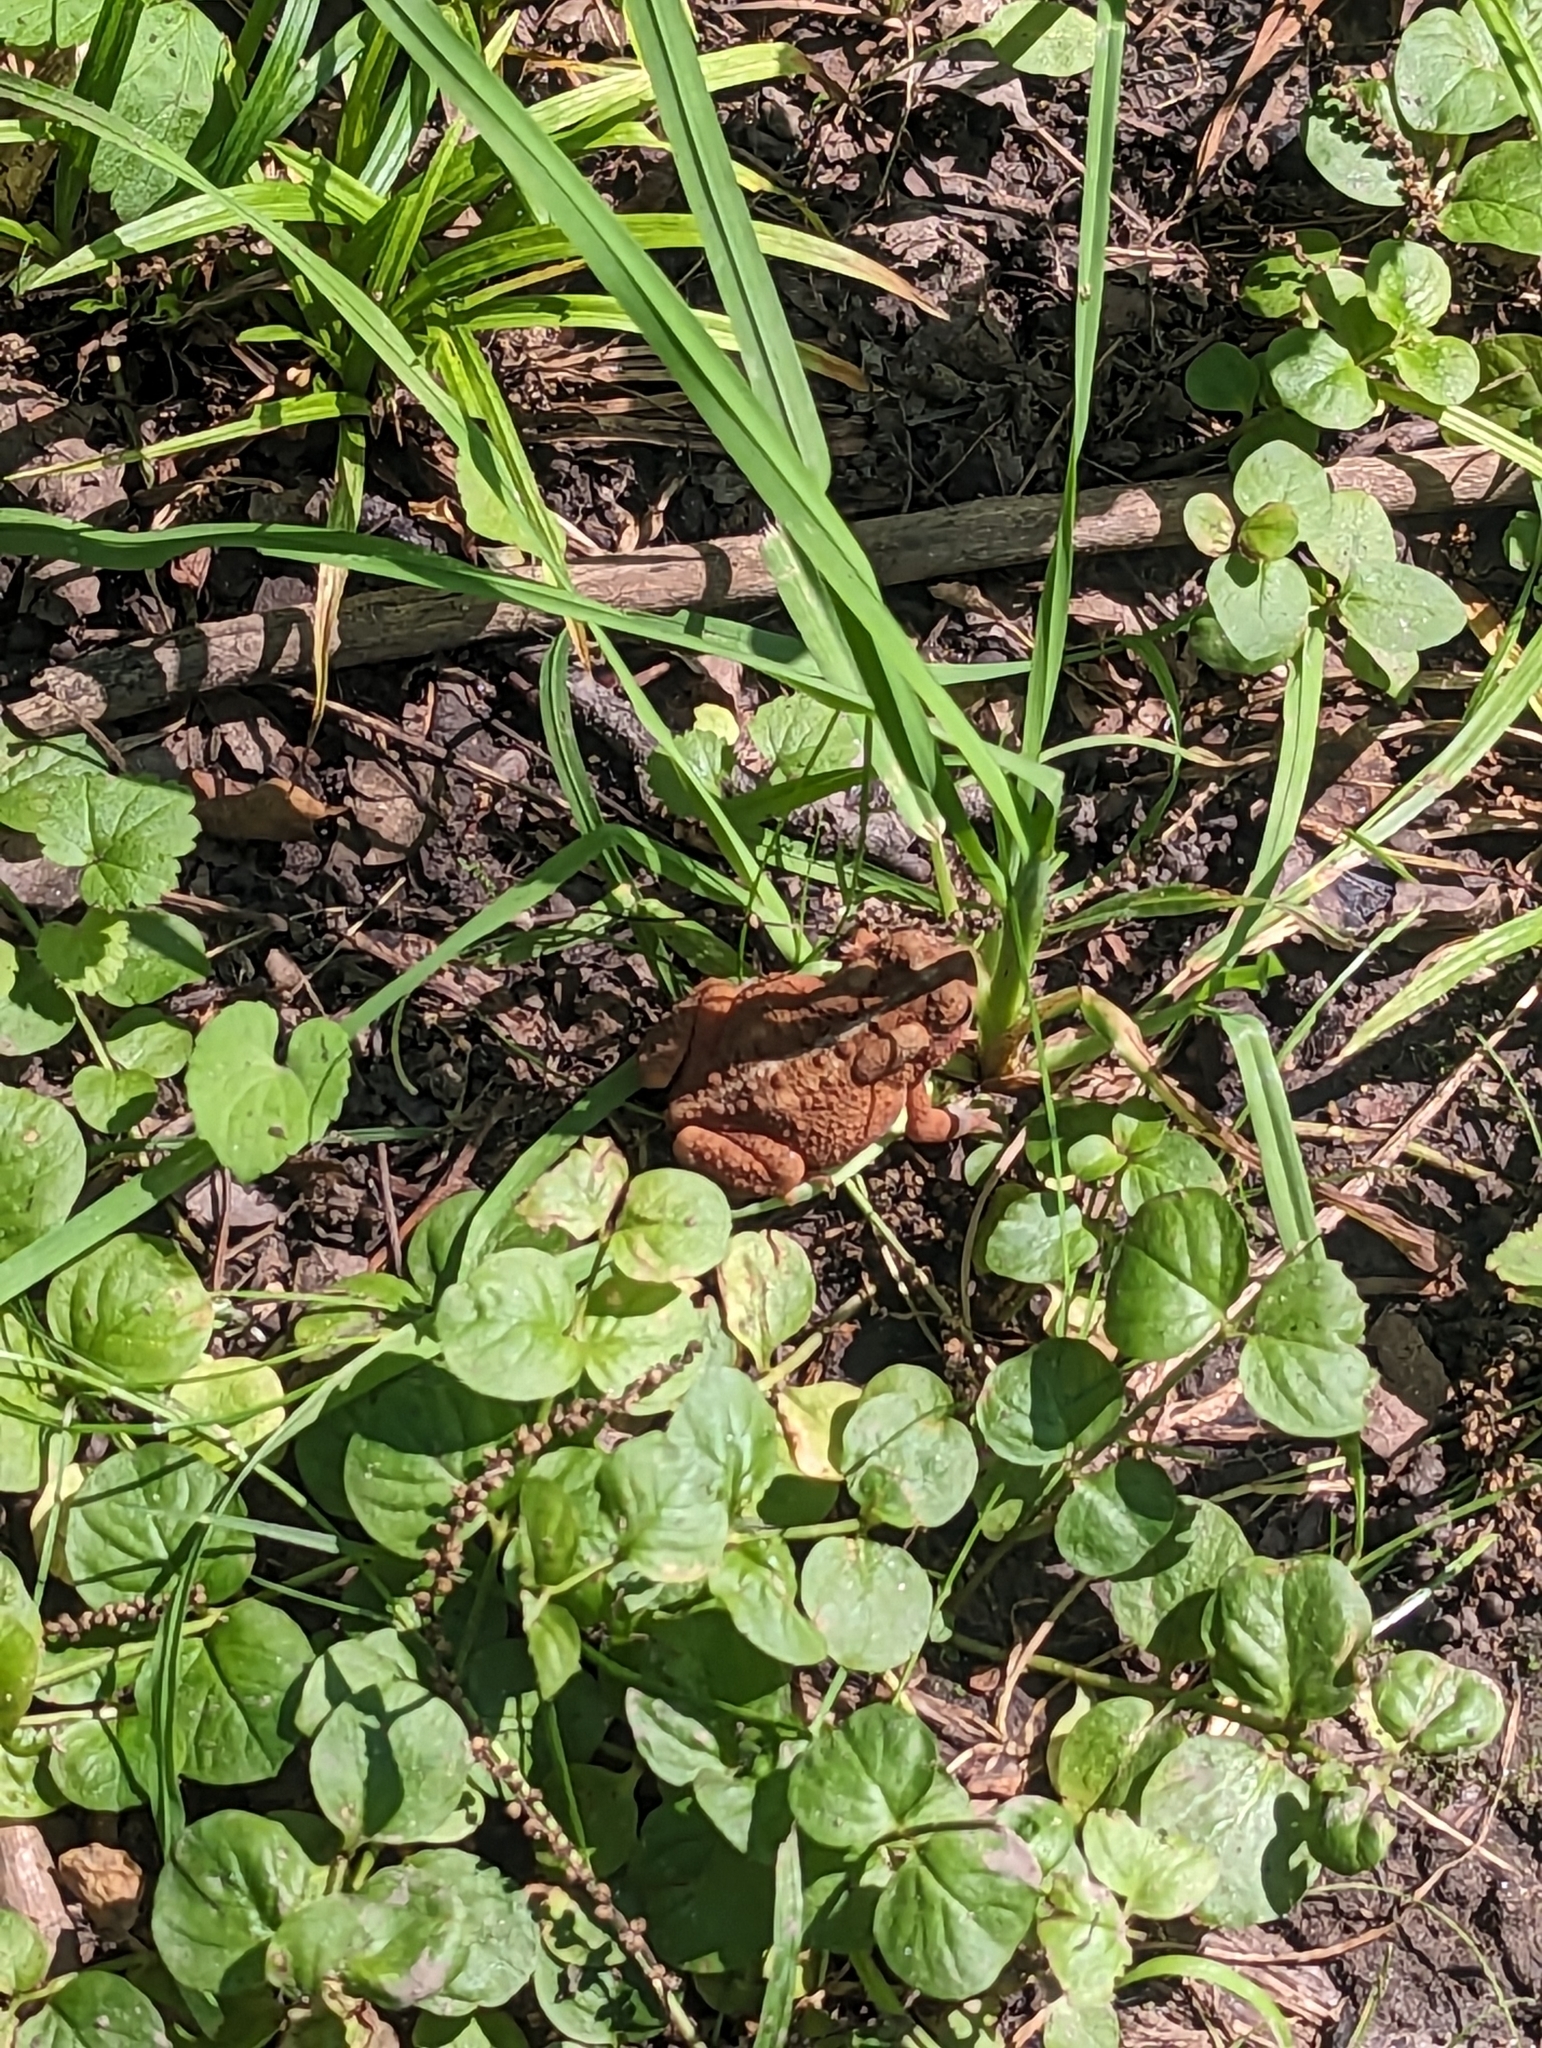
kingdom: Animalia
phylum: Chordata
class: Amphibia
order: Anura
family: Bufonidae
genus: Anaxyrus
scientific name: Anaxyrus americanus
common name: American toad
